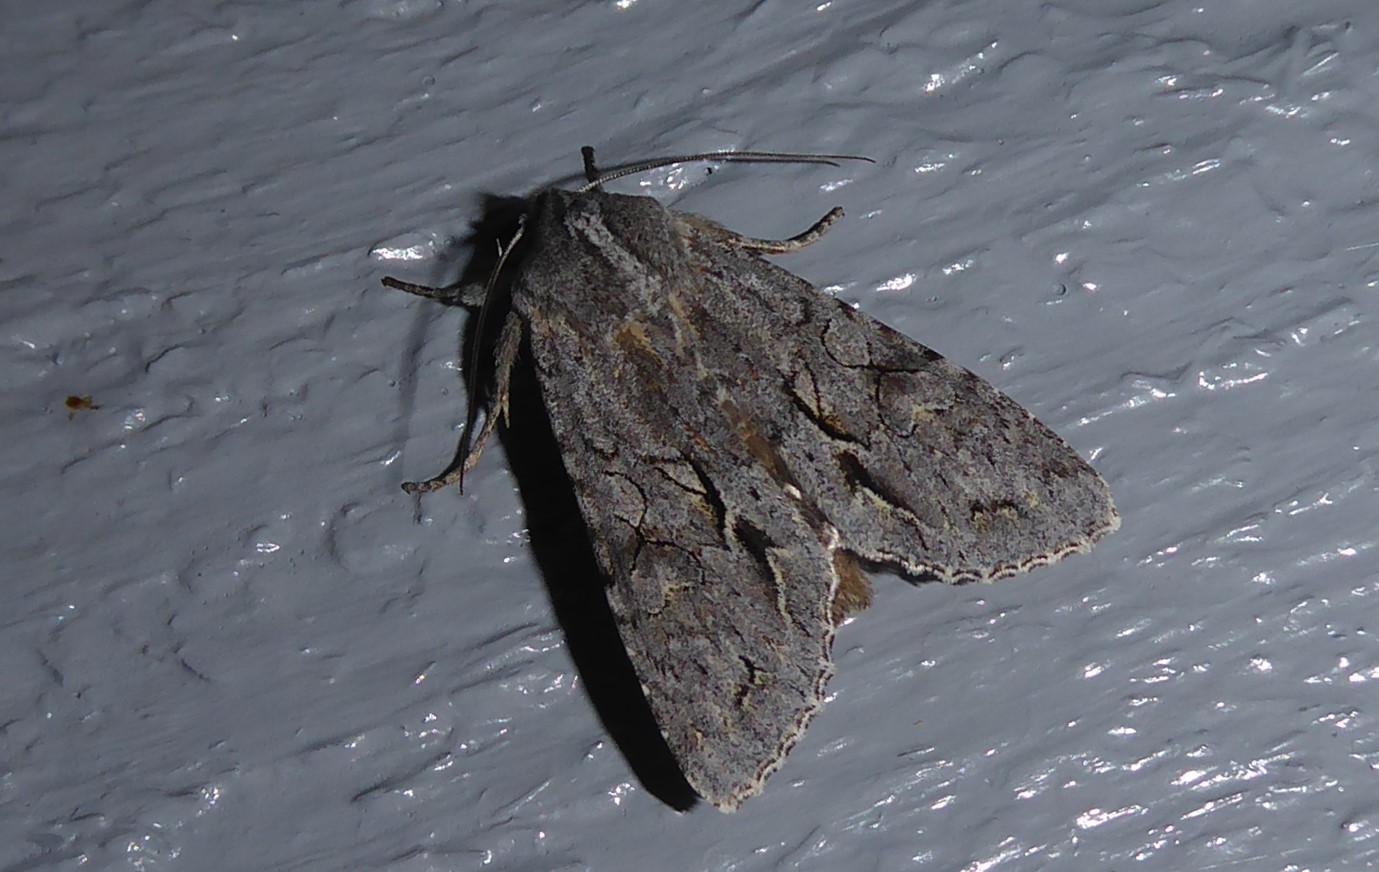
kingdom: Animalia
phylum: Arthropoda
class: Insecta
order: Lepidoptera
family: Noctuidae
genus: Ichneutica
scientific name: Ichneutica
